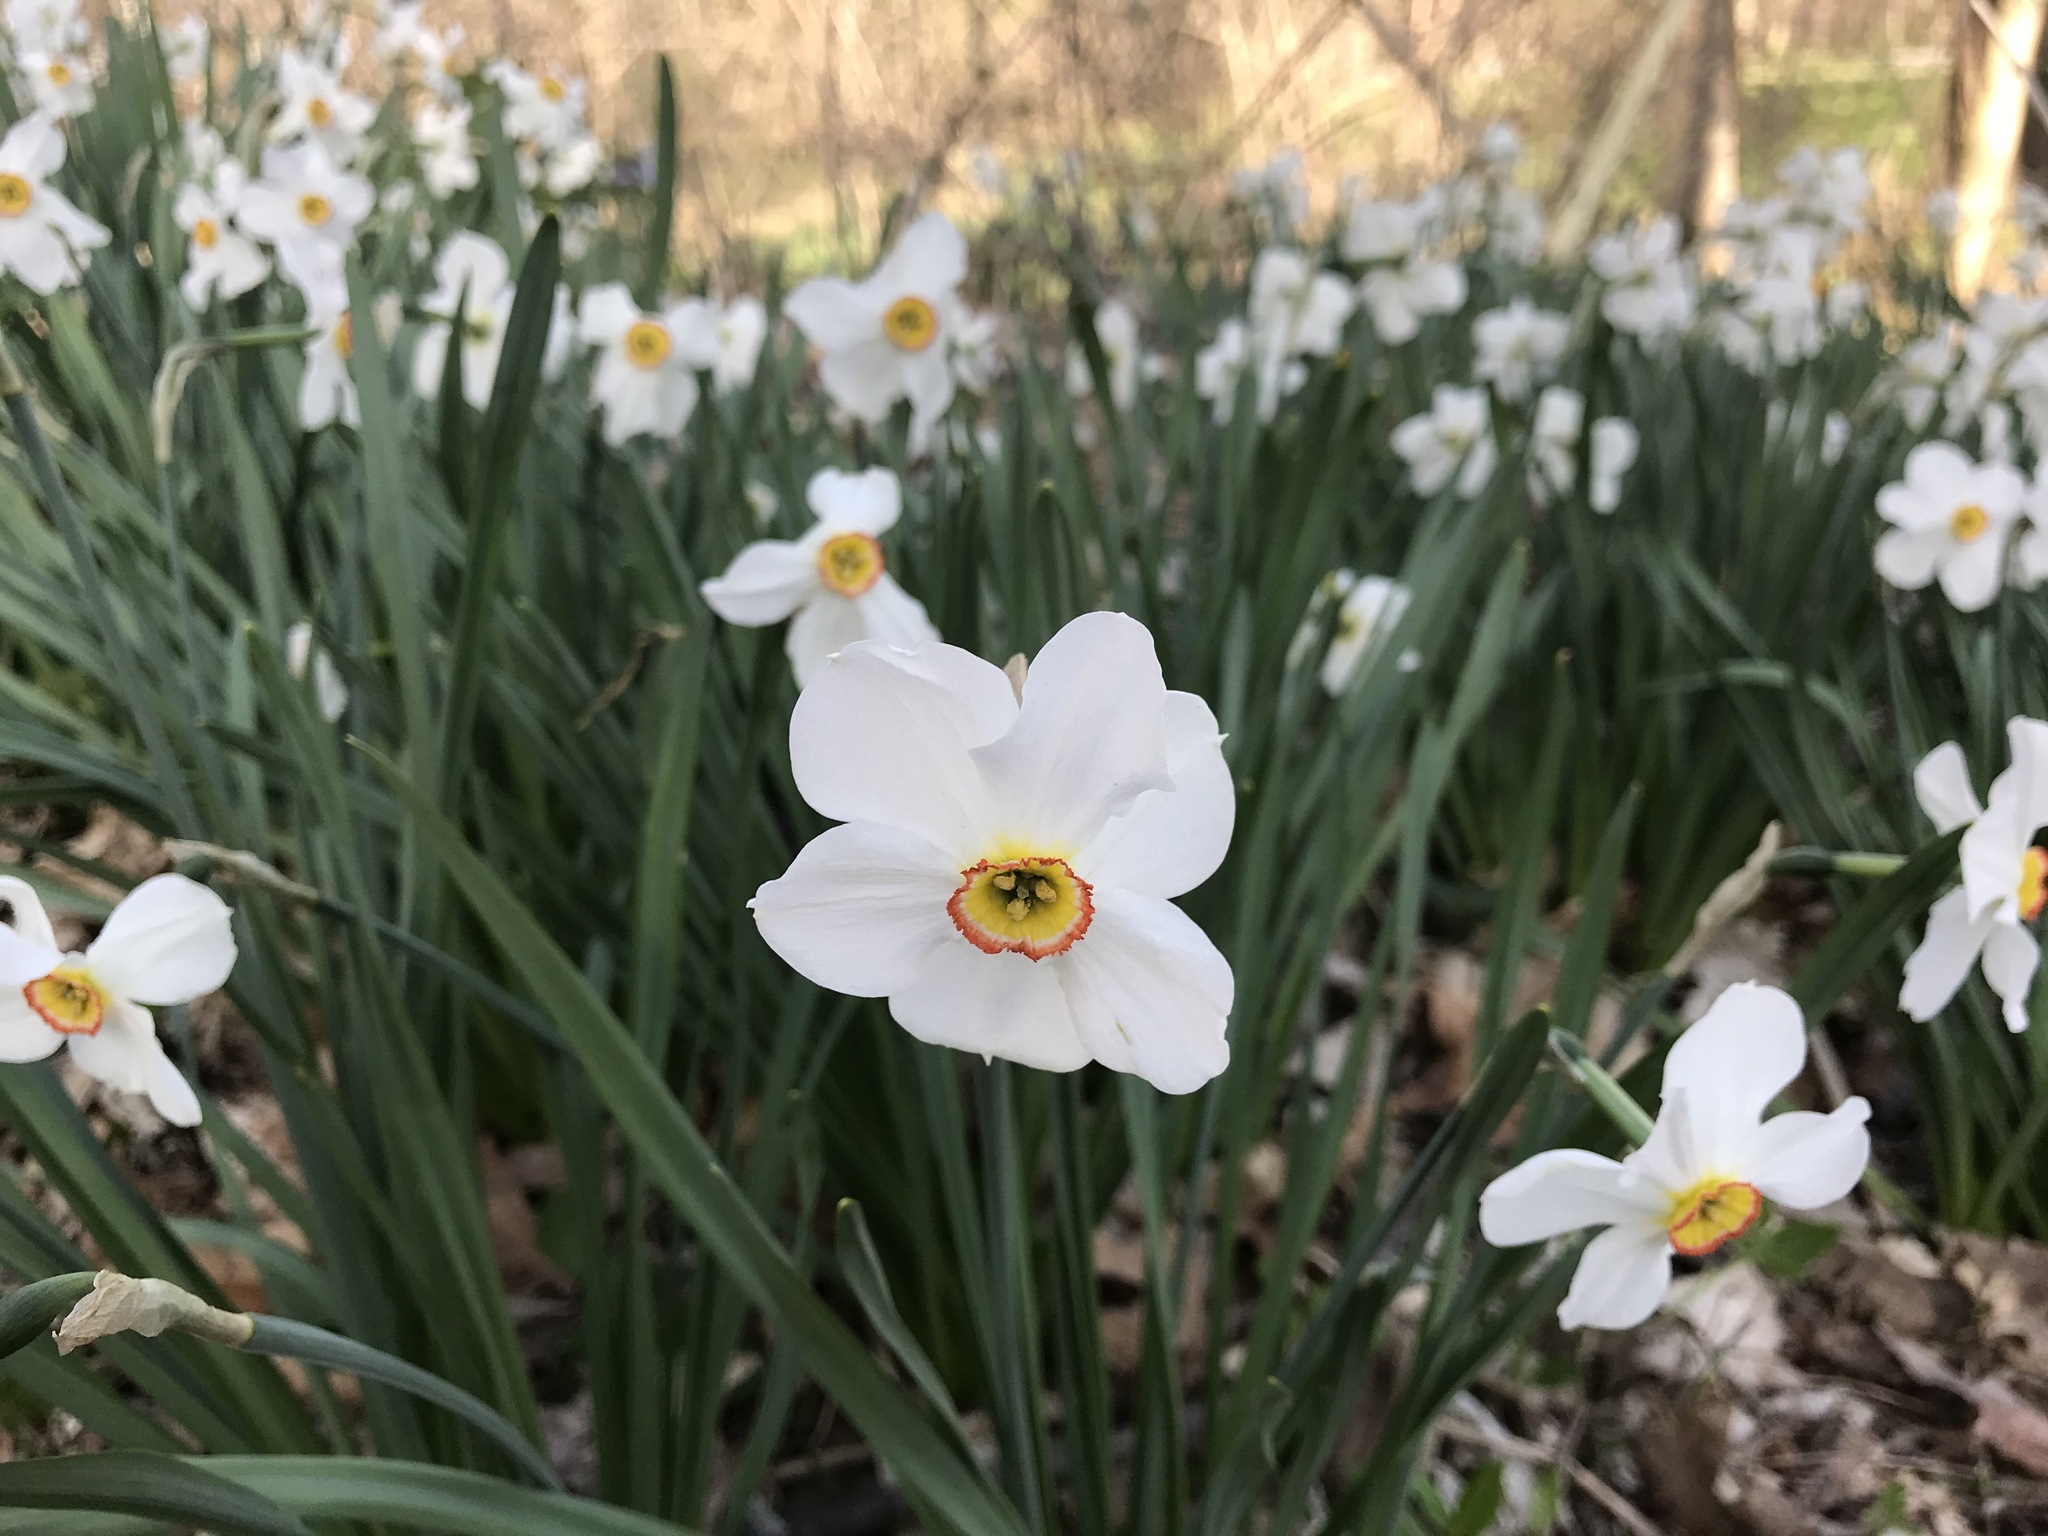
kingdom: Plantae
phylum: Tracheophyta
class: Liliopsida
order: Asparagales
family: Amaryllidaceae
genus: Narcissus
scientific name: Narcissus poeticus
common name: Pheasant's-eye daffodil
